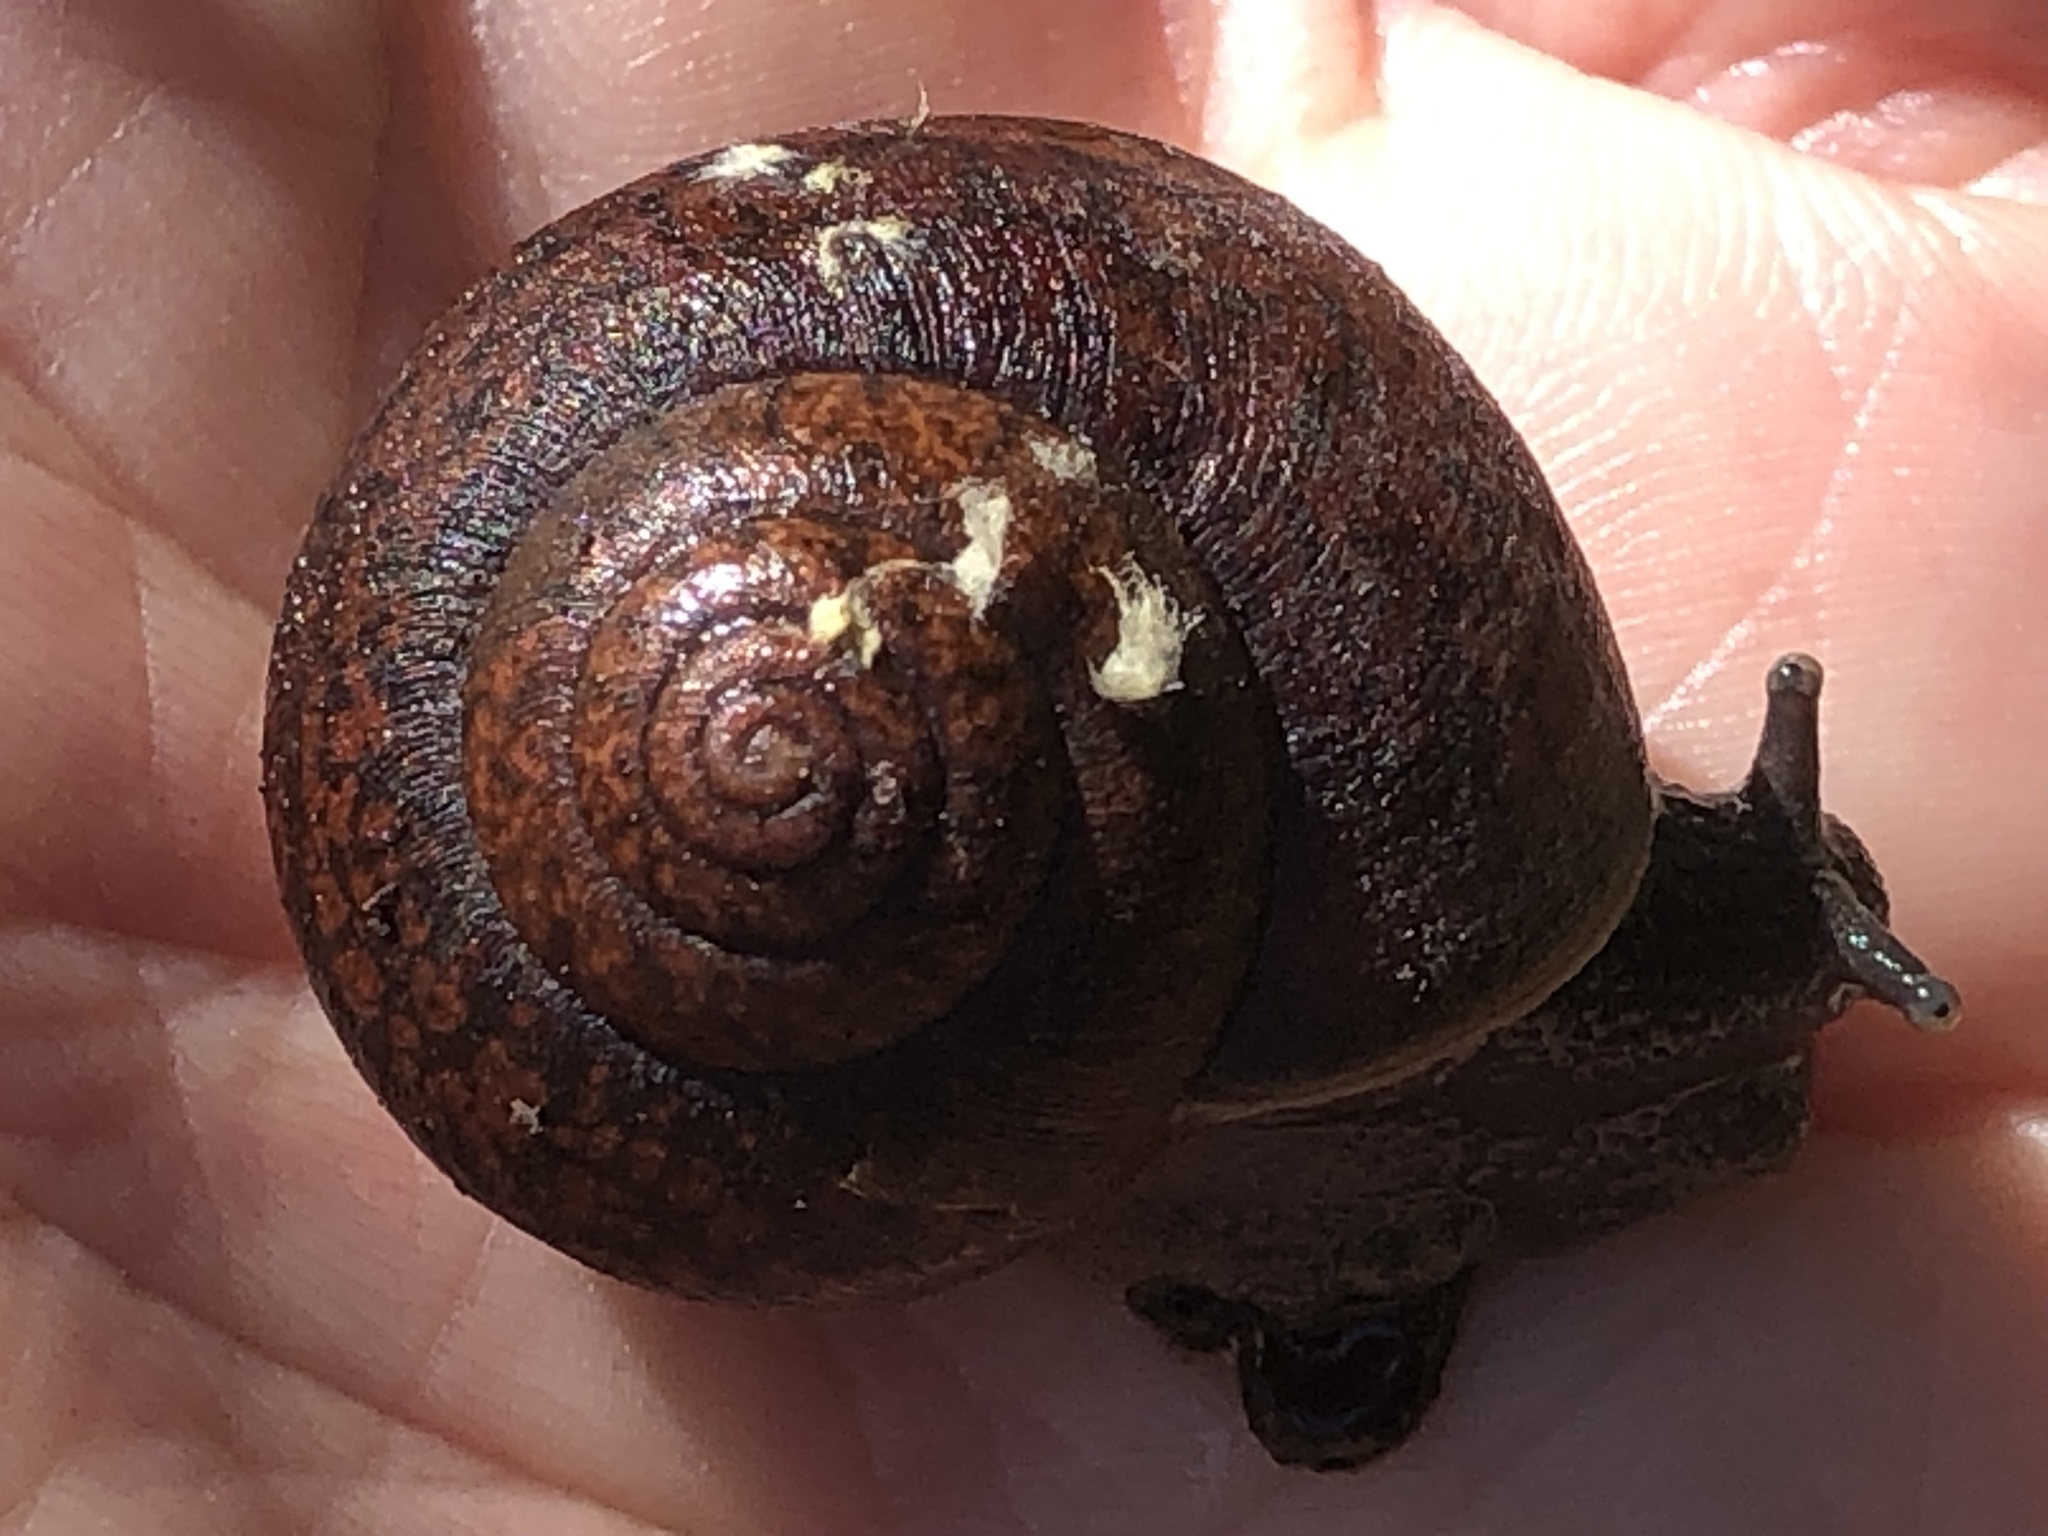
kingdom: Animalia
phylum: Mollusca
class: Gastropoda
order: Stylommatophora
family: Xanthonychidae
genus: Helminthoglypta
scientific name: Helminthoglypta nickliniana
